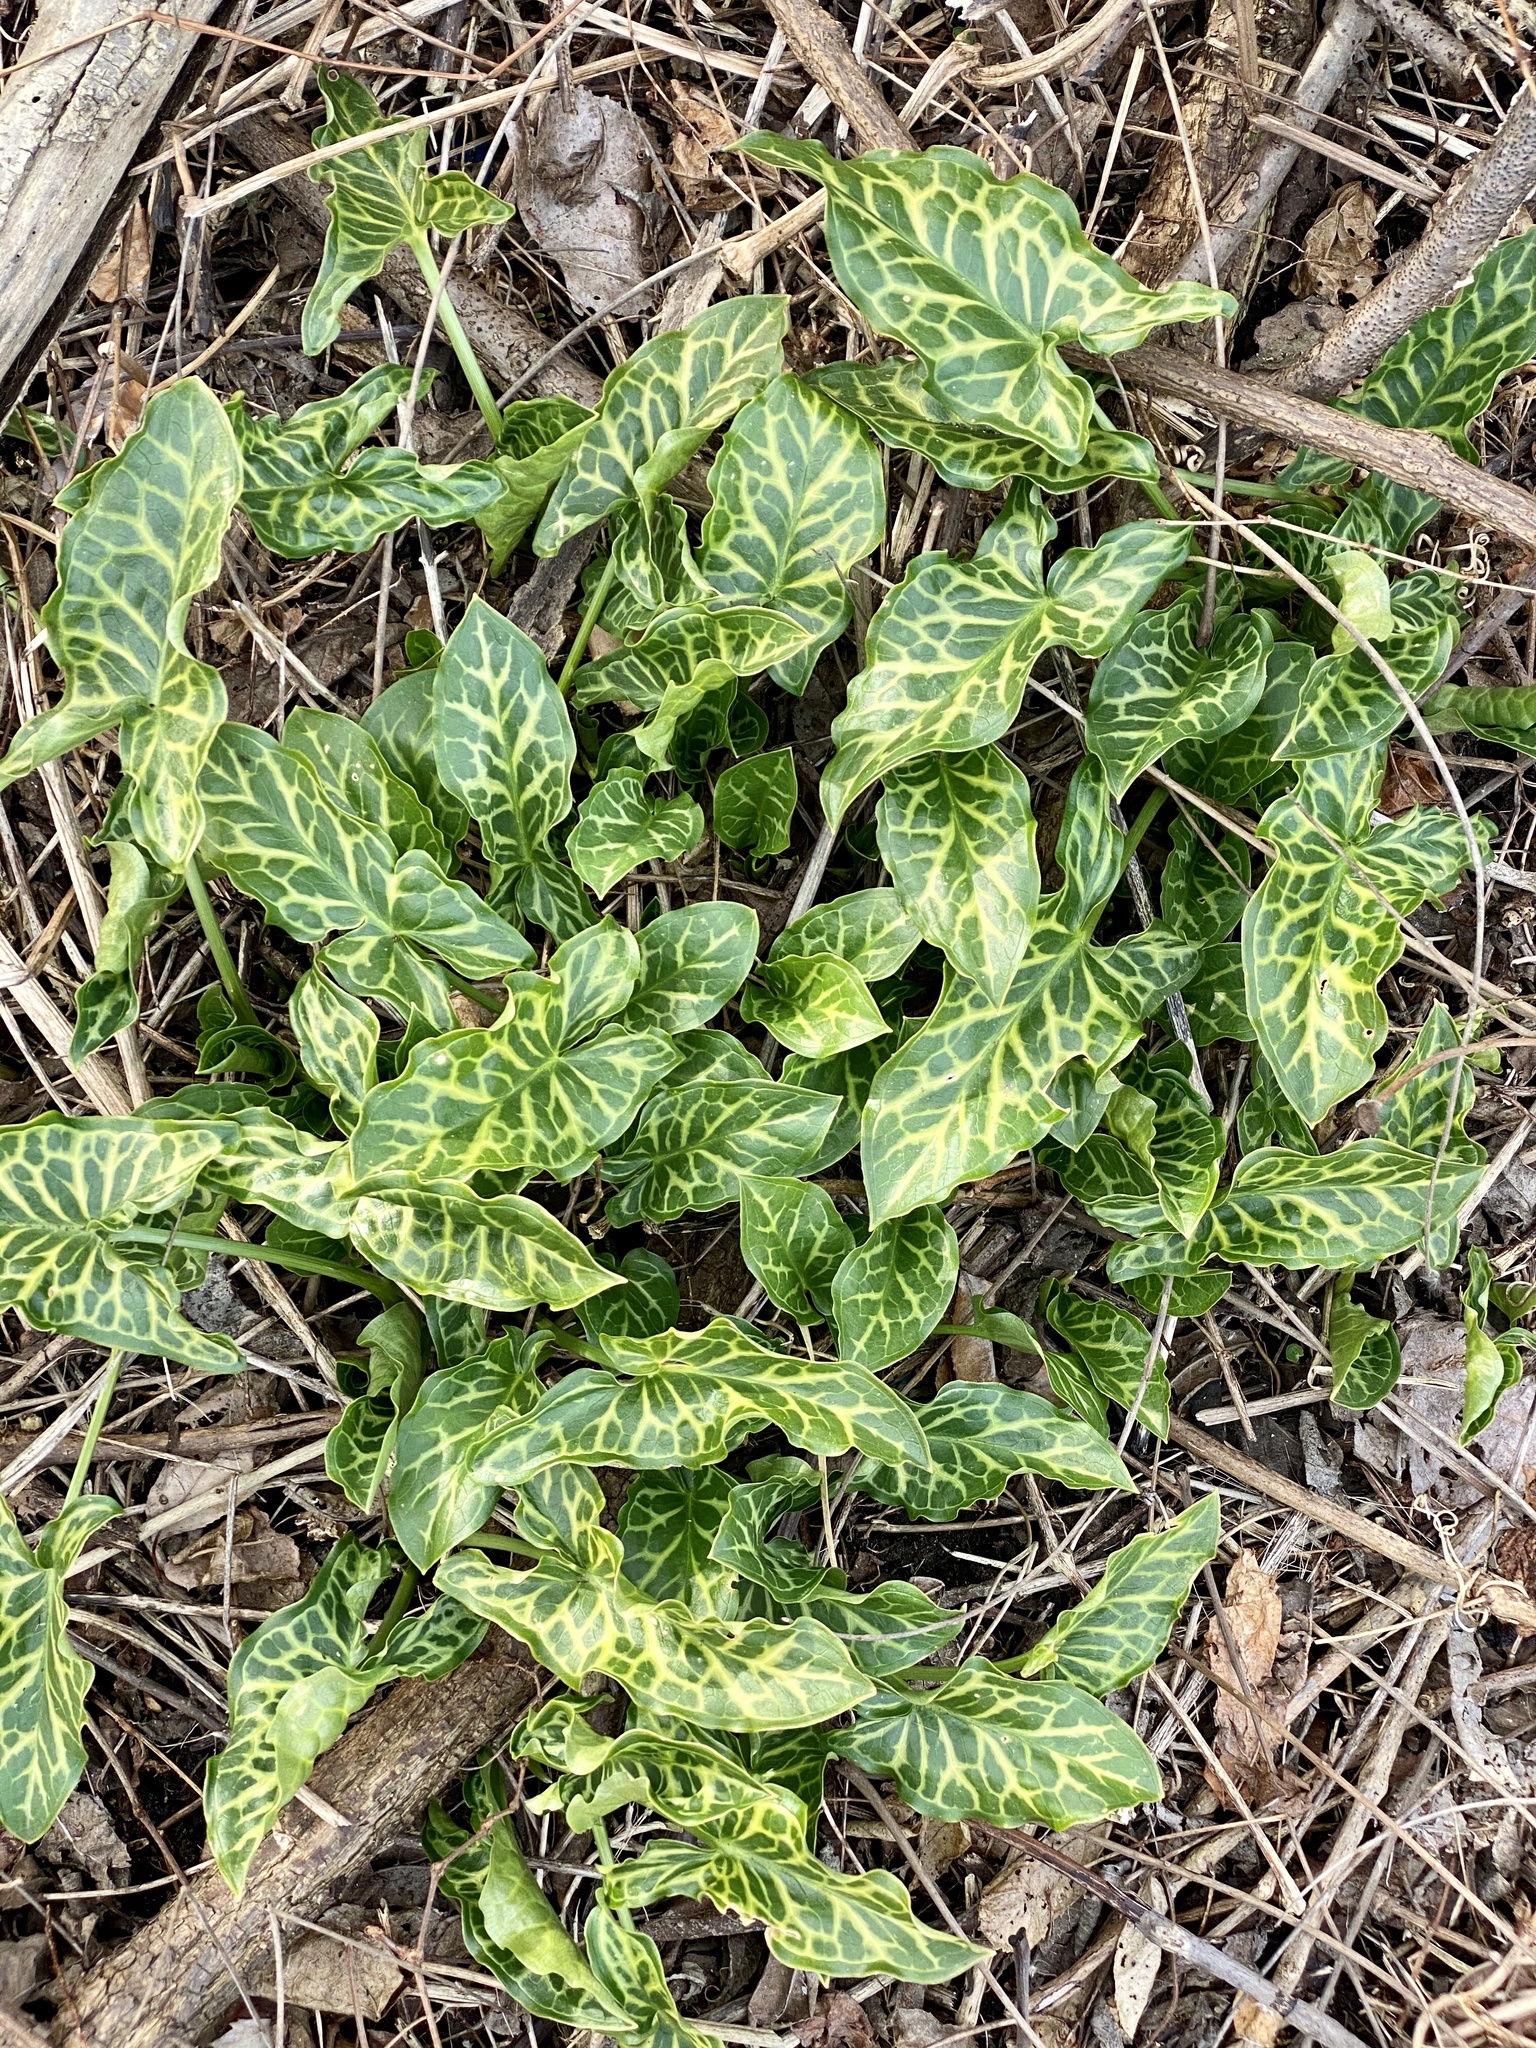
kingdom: Plantae
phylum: Tracheophyta
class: Liliopsida
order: Alismatales
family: Araceae
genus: Arum
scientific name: Arum italicum
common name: Italian lords-and-ladies
